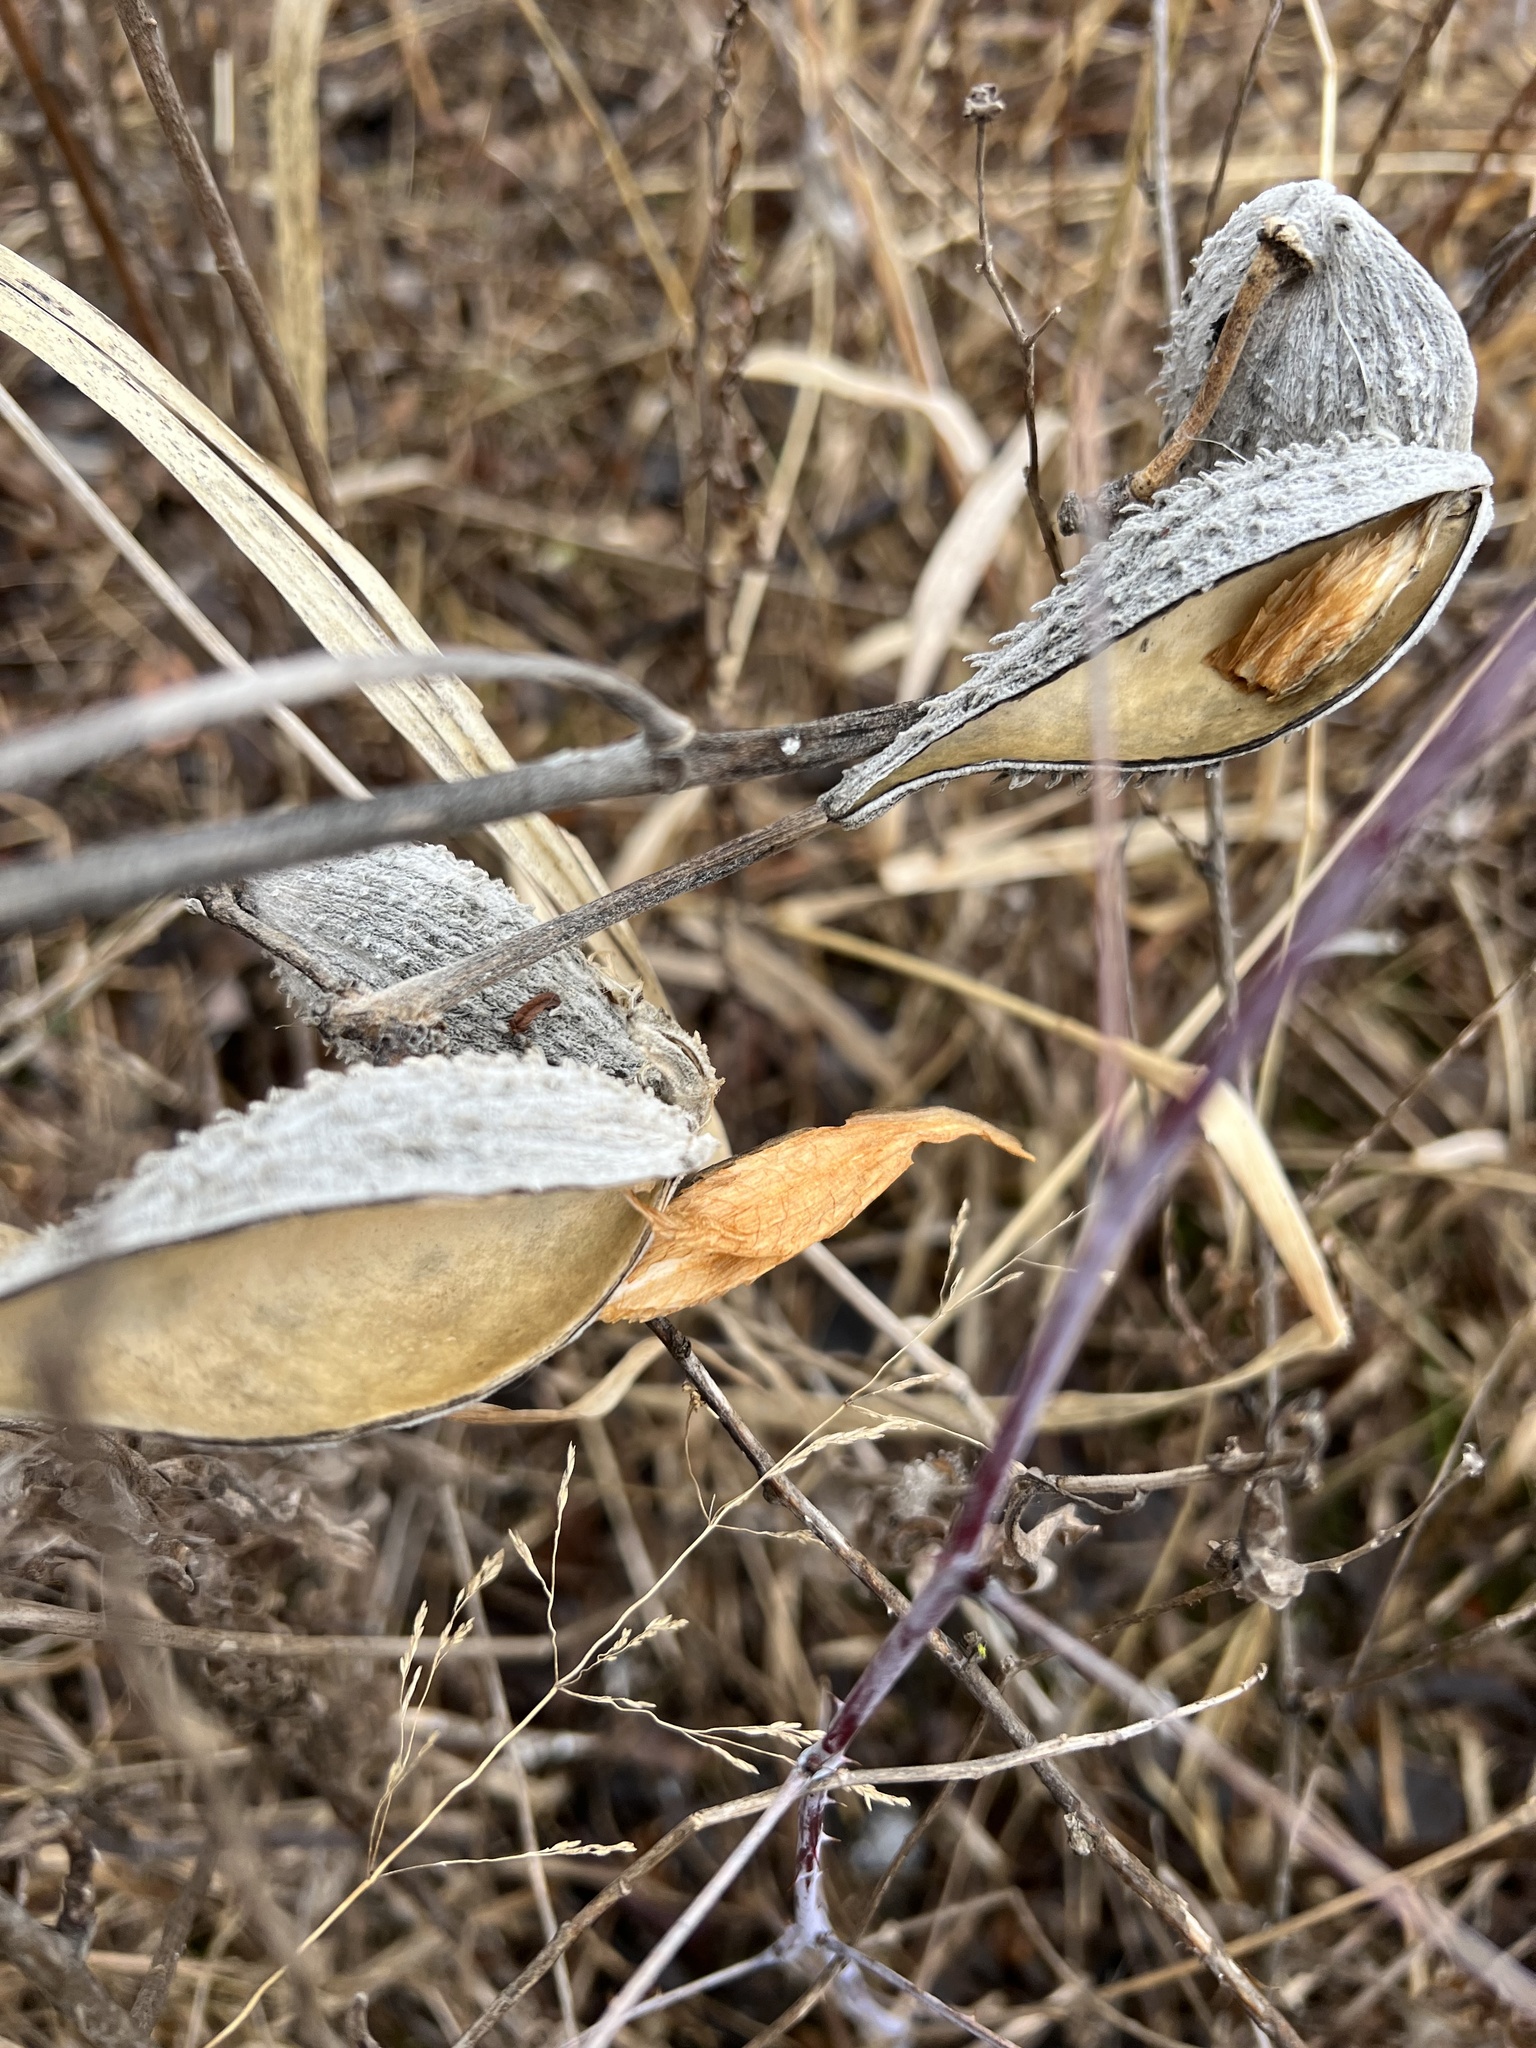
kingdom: Plantae
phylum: Tracheophyta
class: Magnoliopsida
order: Gentianales
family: Apocynaceae
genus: Asclepias
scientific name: Asclepias syriaca
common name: Common milkweed
